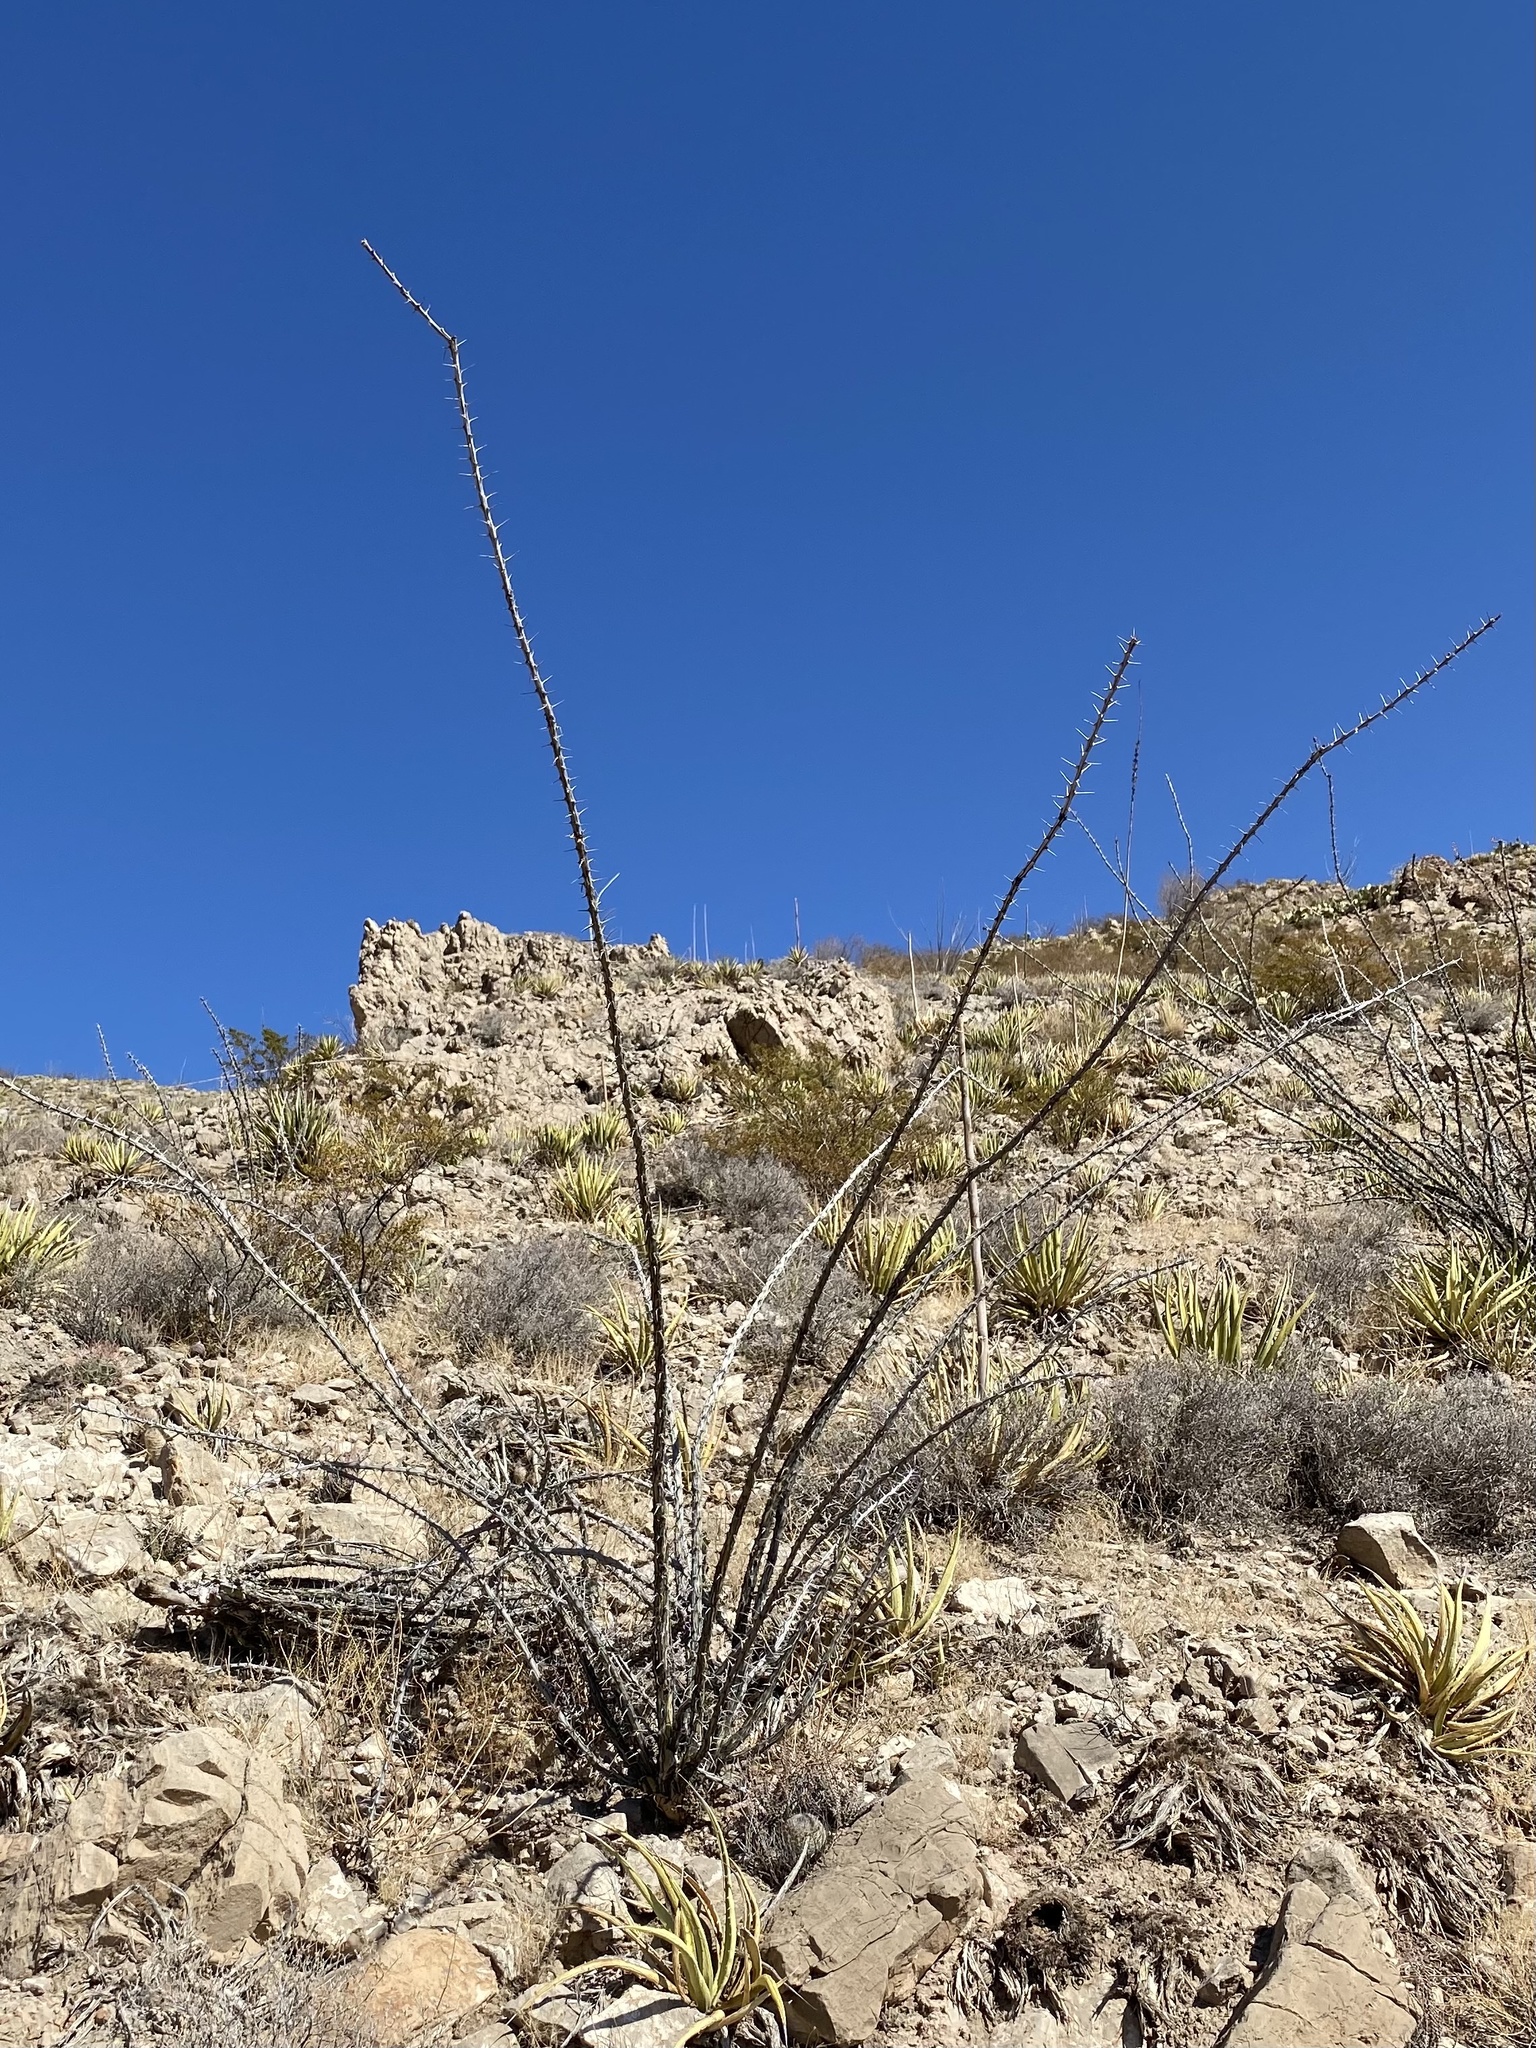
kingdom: Plantae
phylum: Tracheophyta
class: Magnoliopsida
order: Ericales
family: Fouquieriaceae
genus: Fouquieria
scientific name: Fouquieria splendens
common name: Vine-cactus
